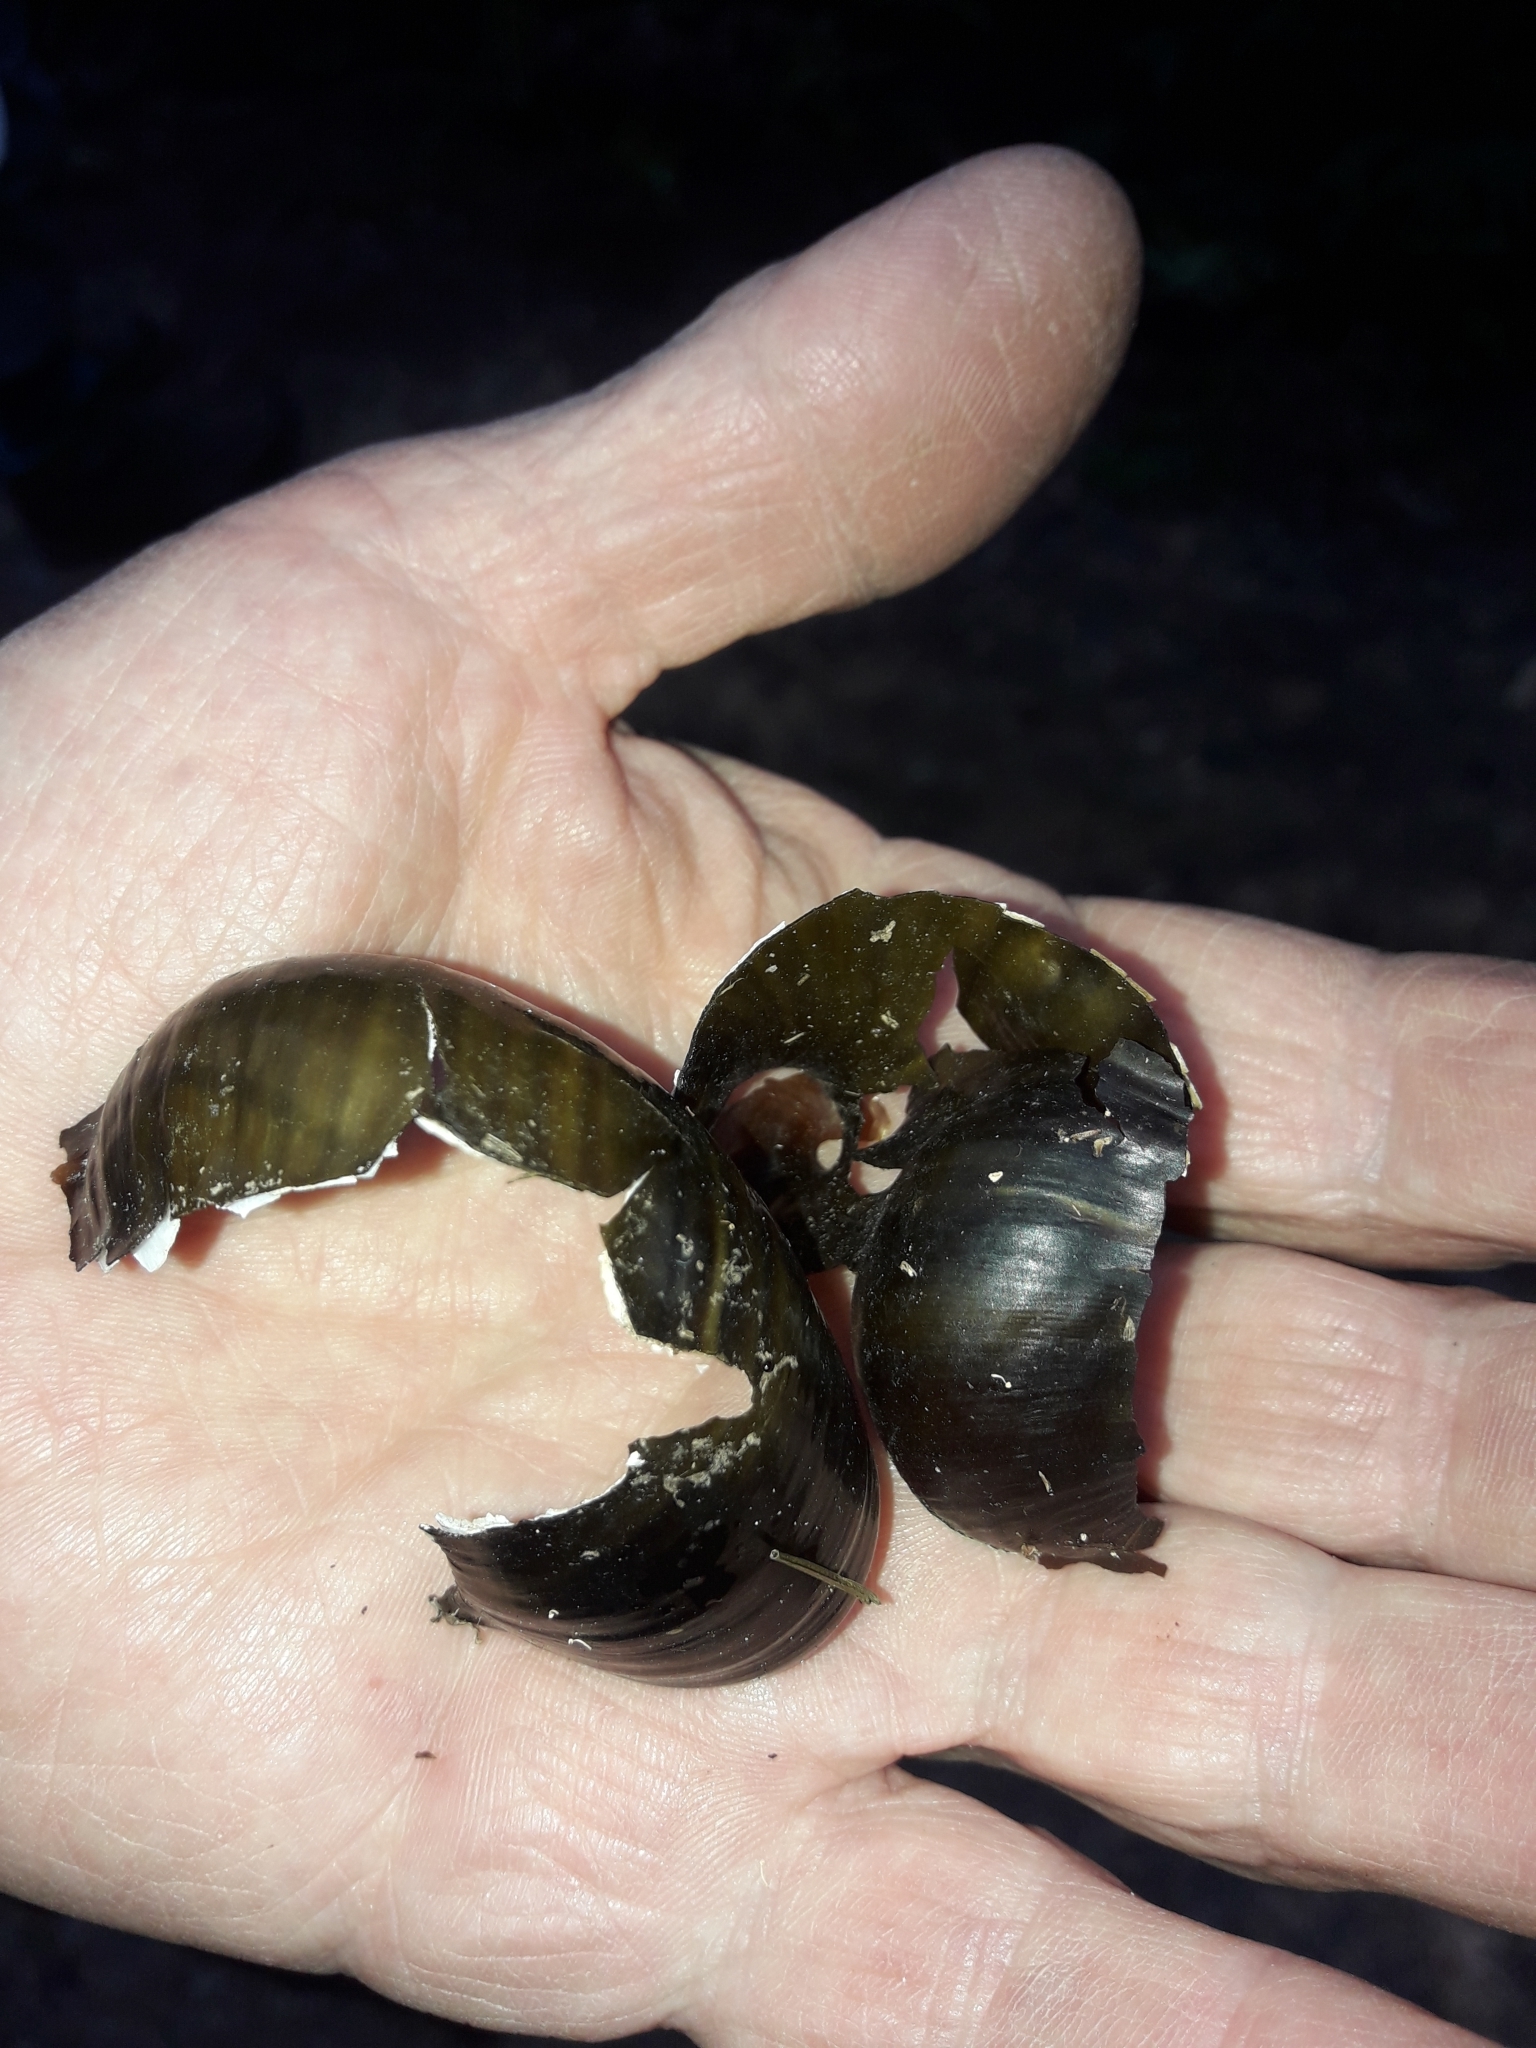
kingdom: Animalia
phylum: Mollusca
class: Gastropoda
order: Stylommatophora
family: Rhytididae
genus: Paryphanta
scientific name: Paryphanta busbyi
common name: Kauri snail
